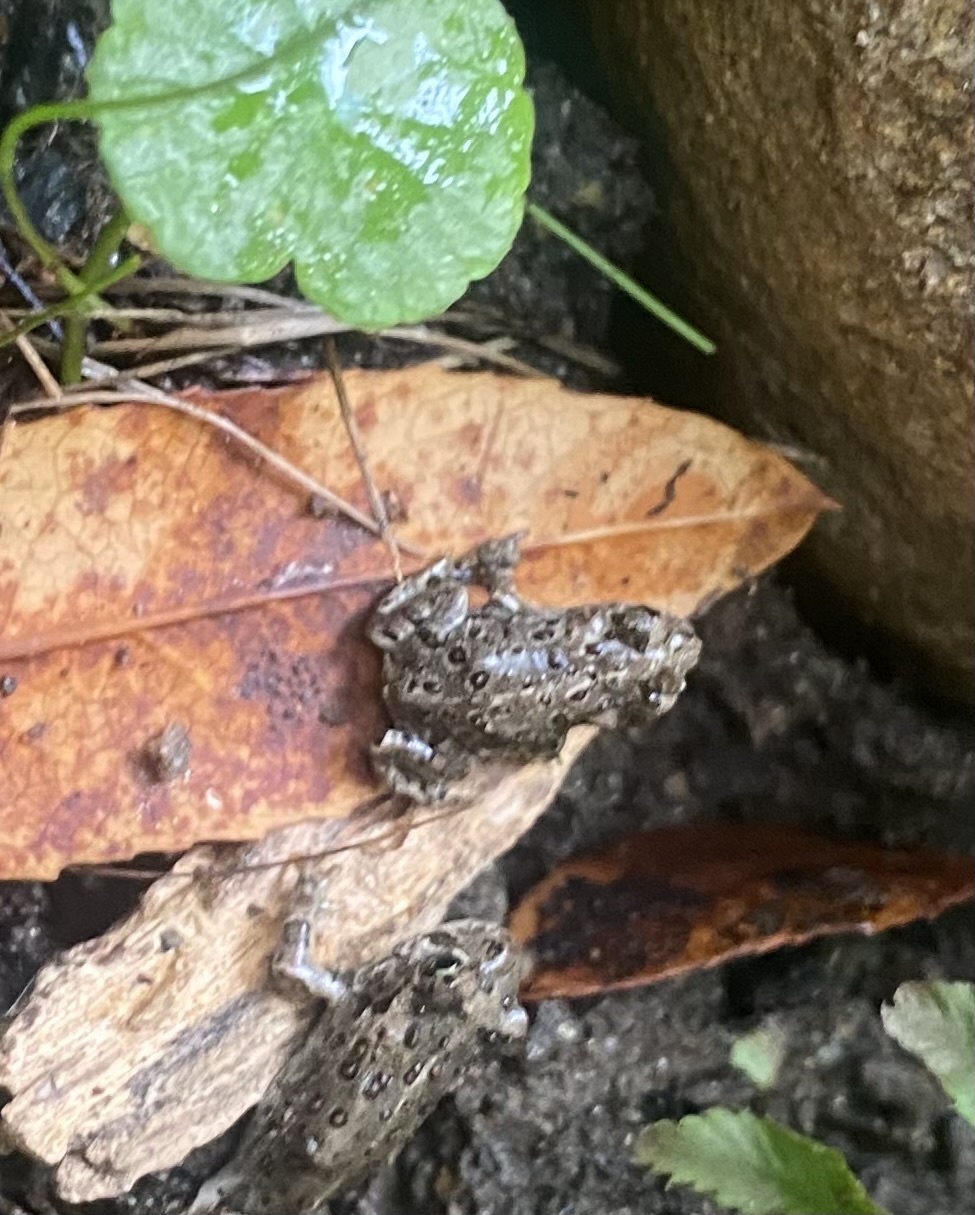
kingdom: Animalia
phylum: Chordata
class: Amphibia
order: Anura
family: Bufonidae
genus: Anaxyrus
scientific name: Anaxyrus boreas
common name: Western toad
